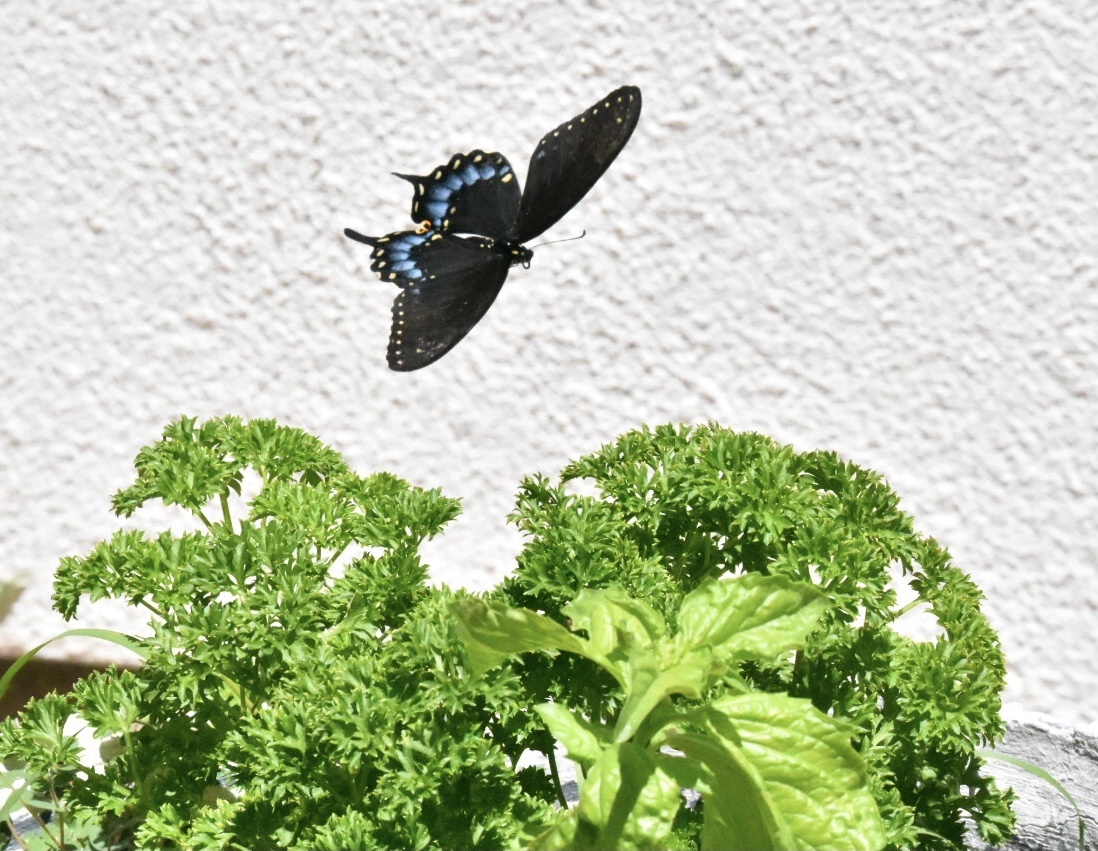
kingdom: Animalia
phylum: Arthropoda
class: Insecta
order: Lepidoptera
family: Papilionidae
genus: Papilio
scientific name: Papilio polyxenes
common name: Black swallowtail
